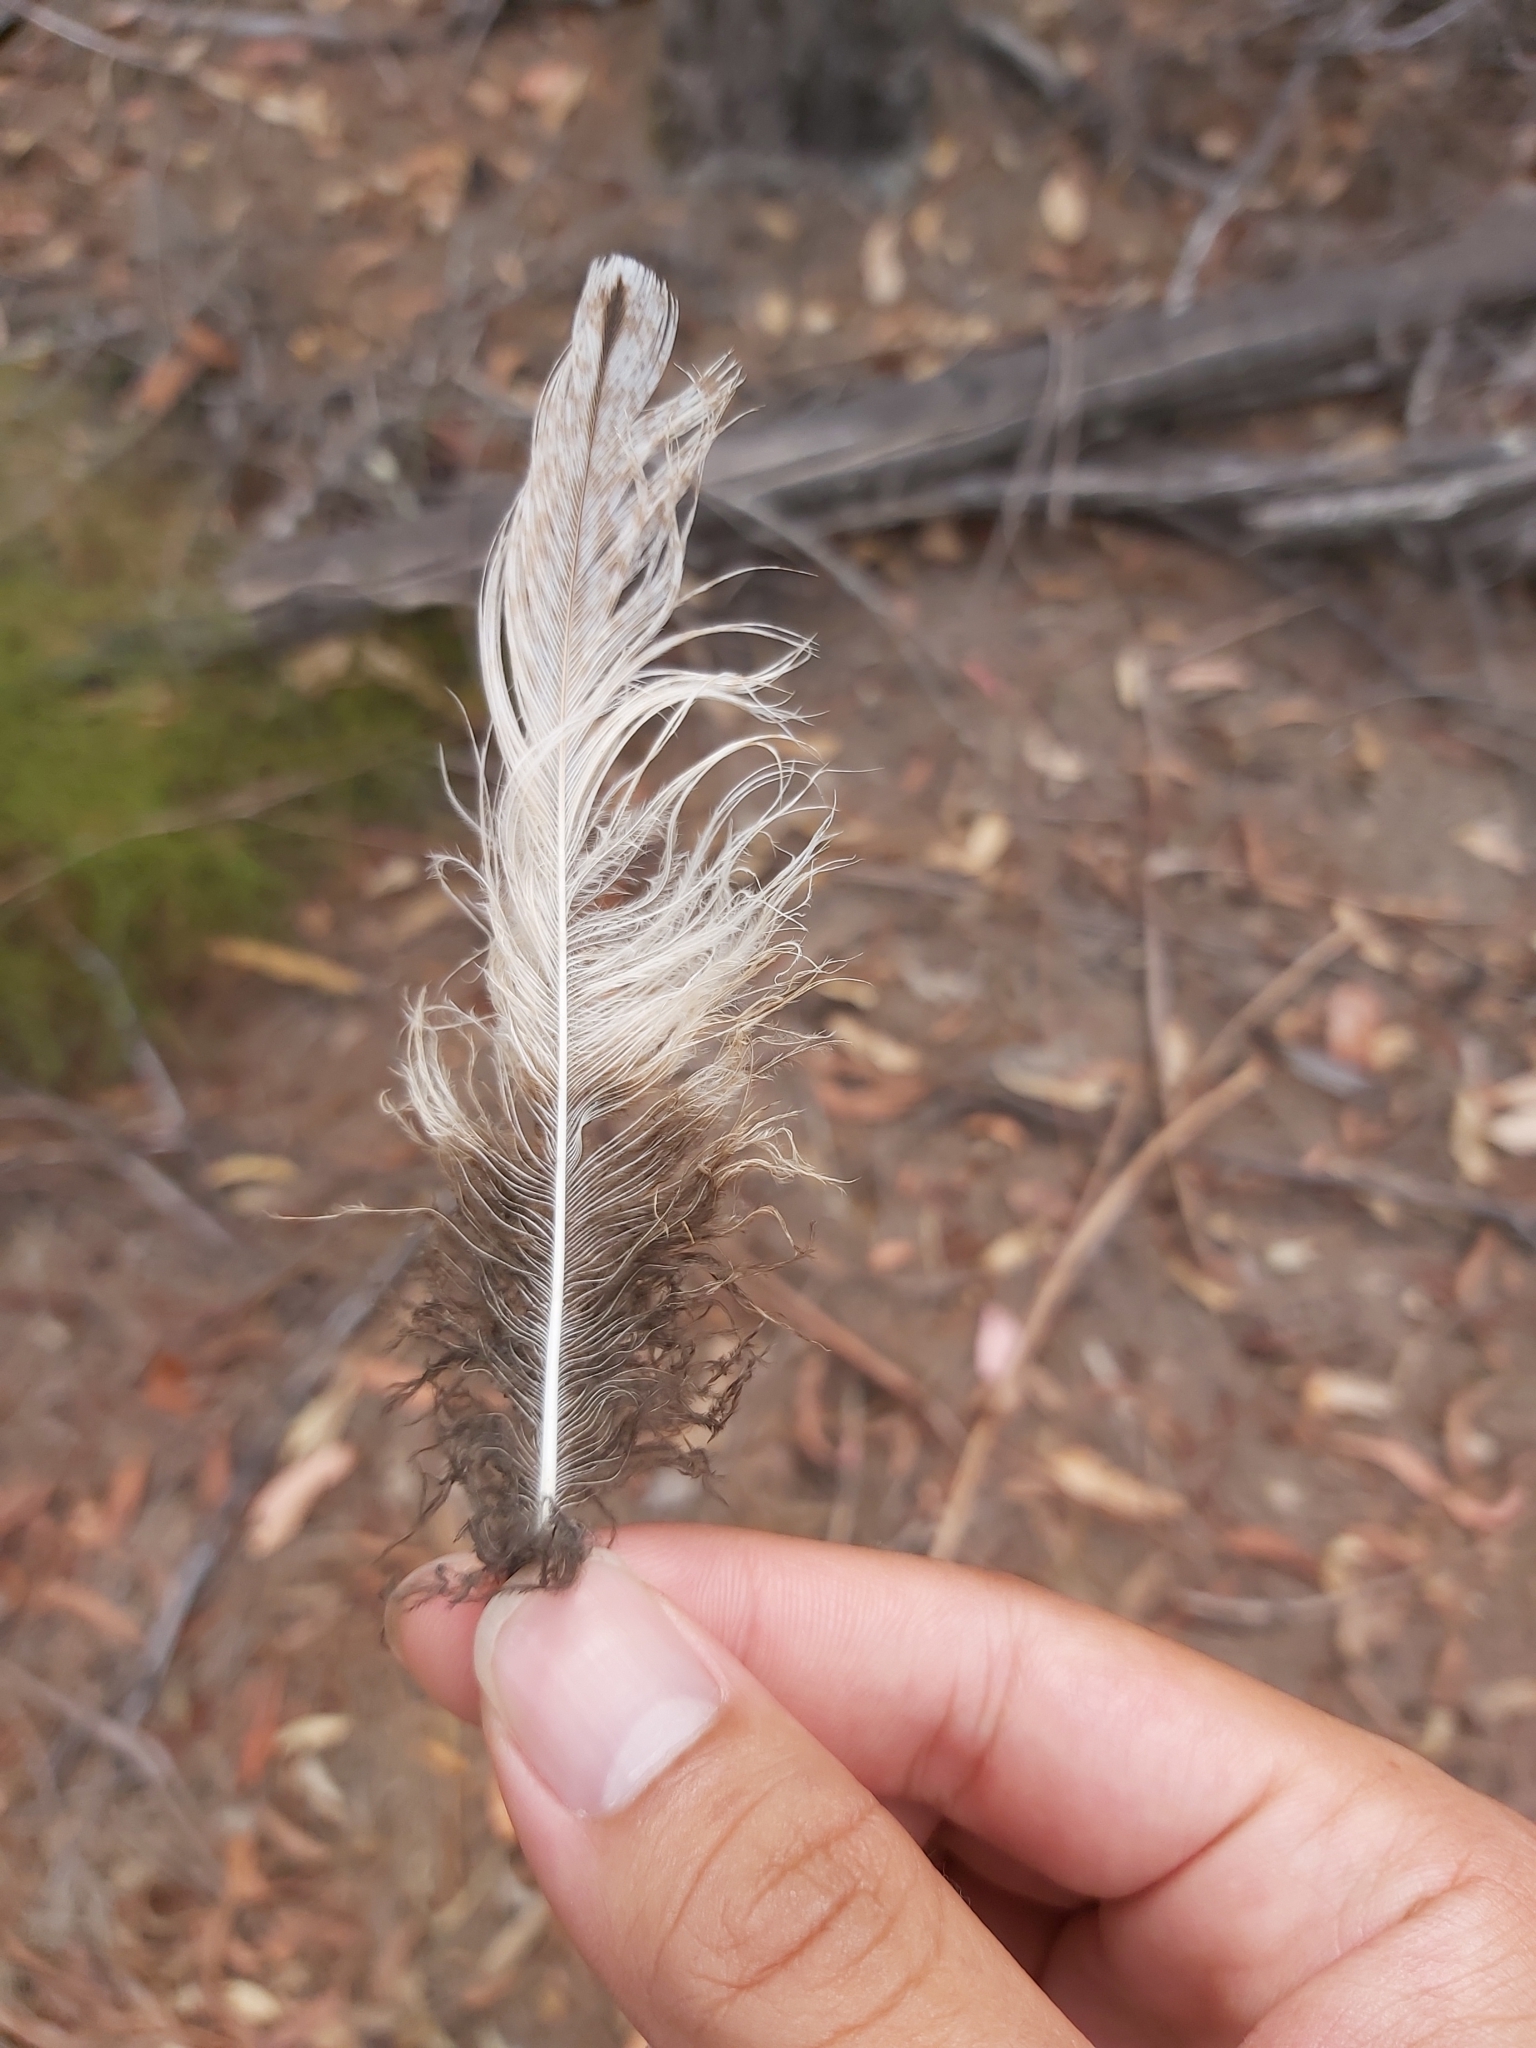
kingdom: Animalia
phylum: Chordata
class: Aves
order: Caprimulgiformes
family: Podargidae
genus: Podargus
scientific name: Podargus strigoides
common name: Tawny frogmouth
